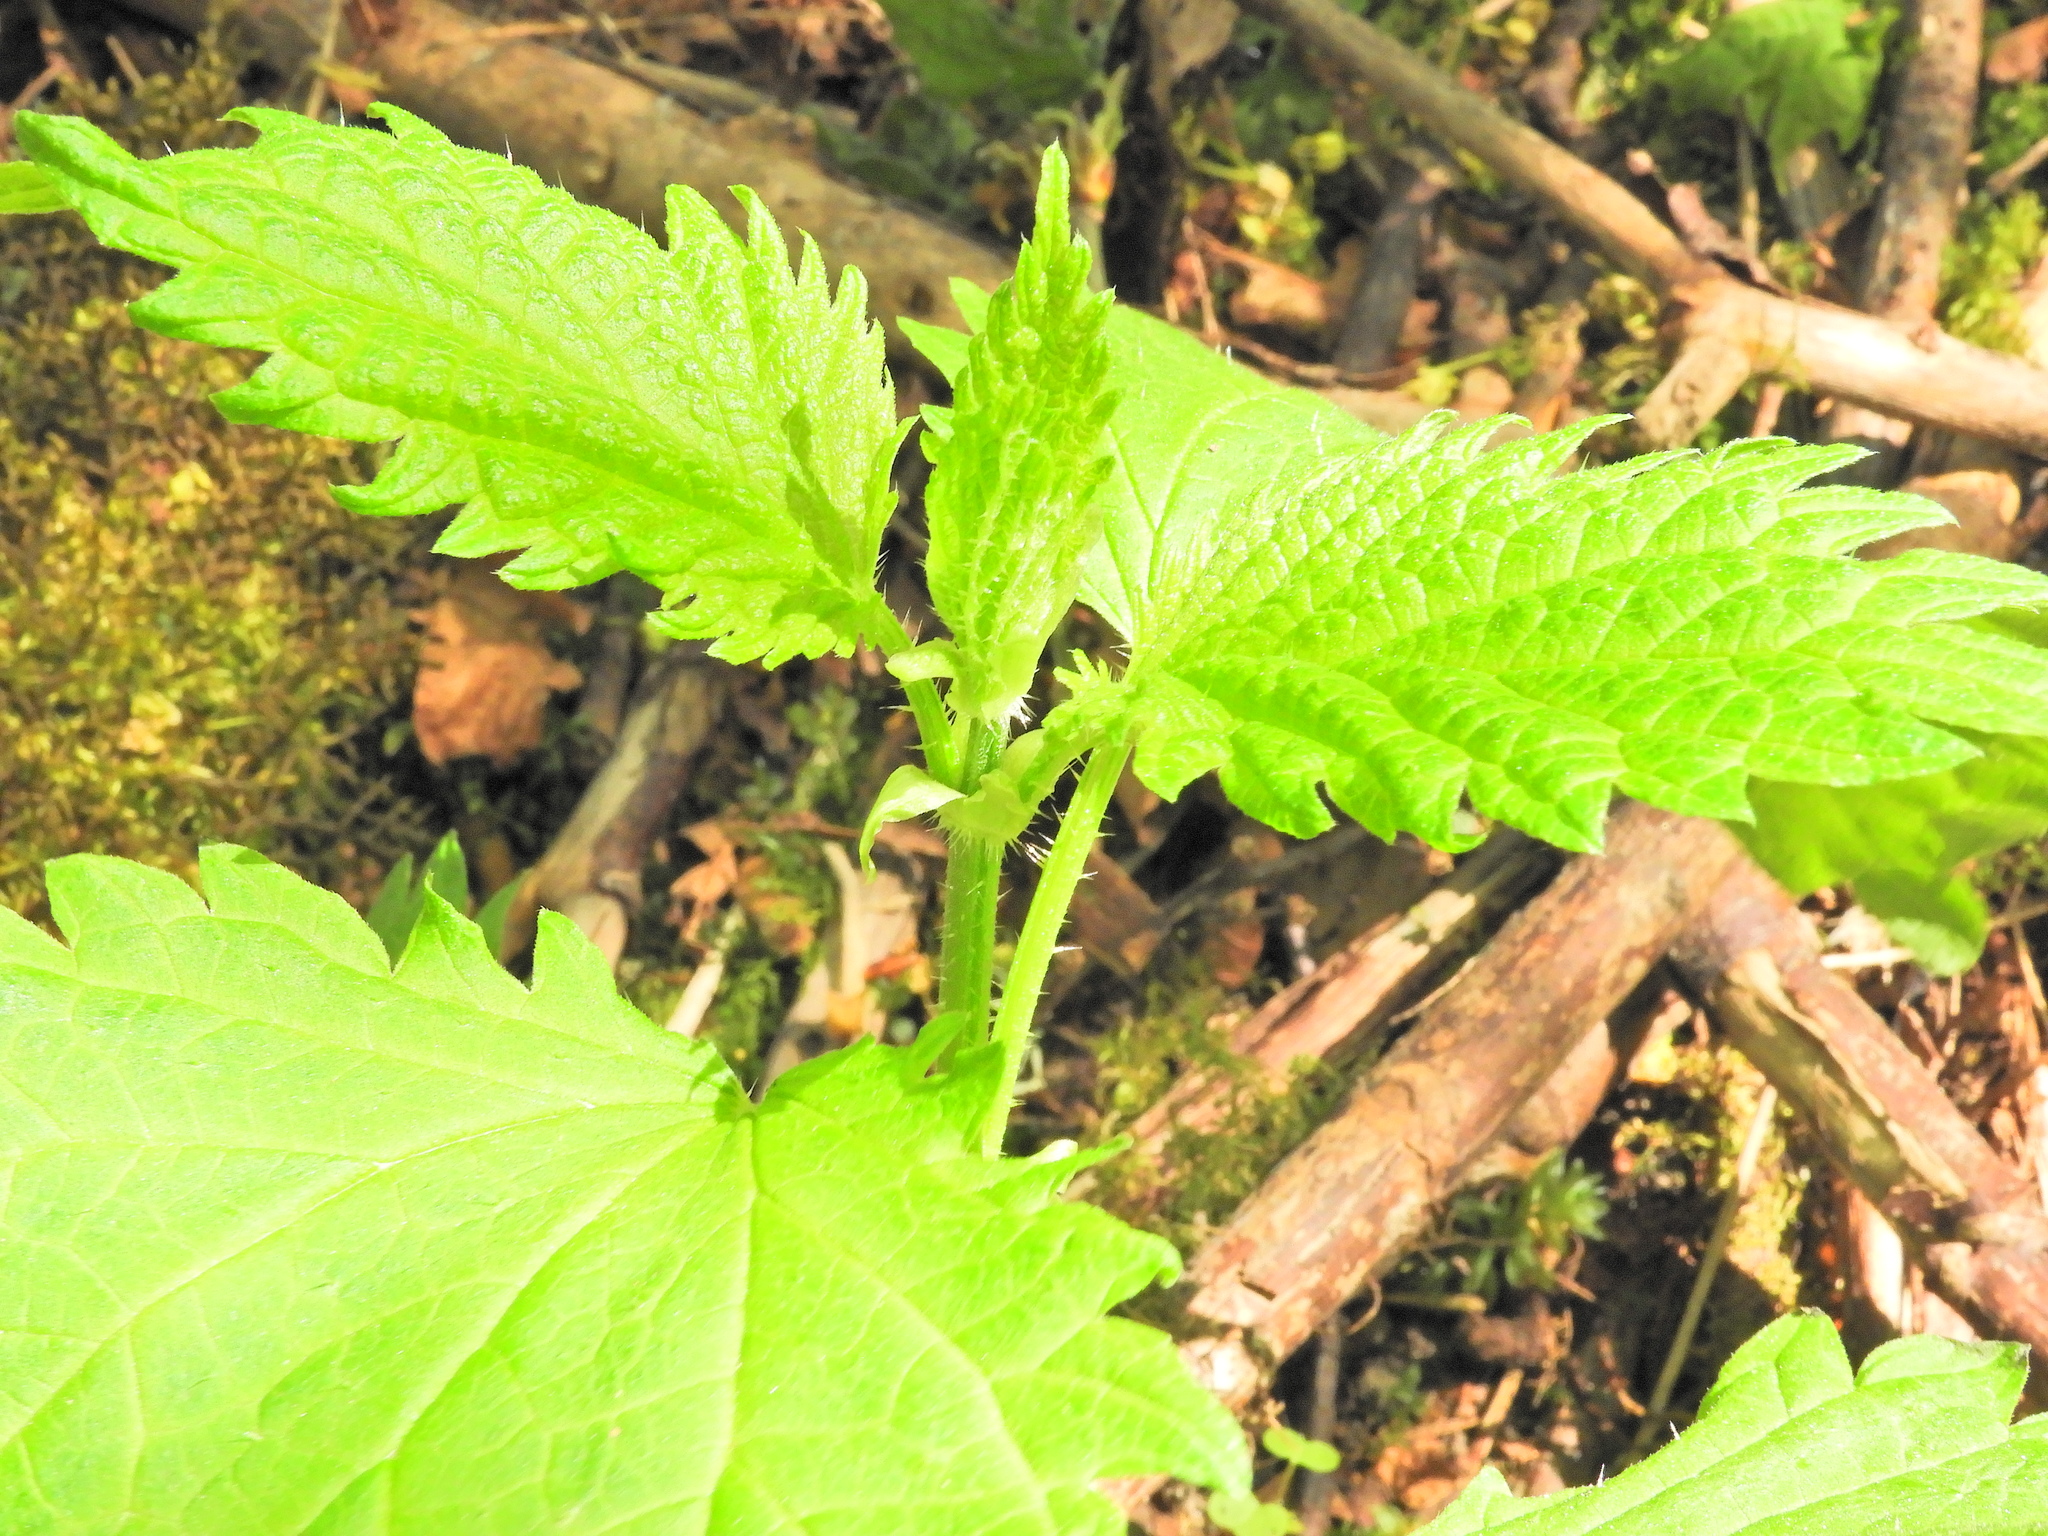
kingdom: Plantae
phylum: Tracheophyta
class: Magnoliopsida
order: Rosales
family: Urticaceae
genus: Urtica
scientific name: Urtica dioica
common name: Common nettle
